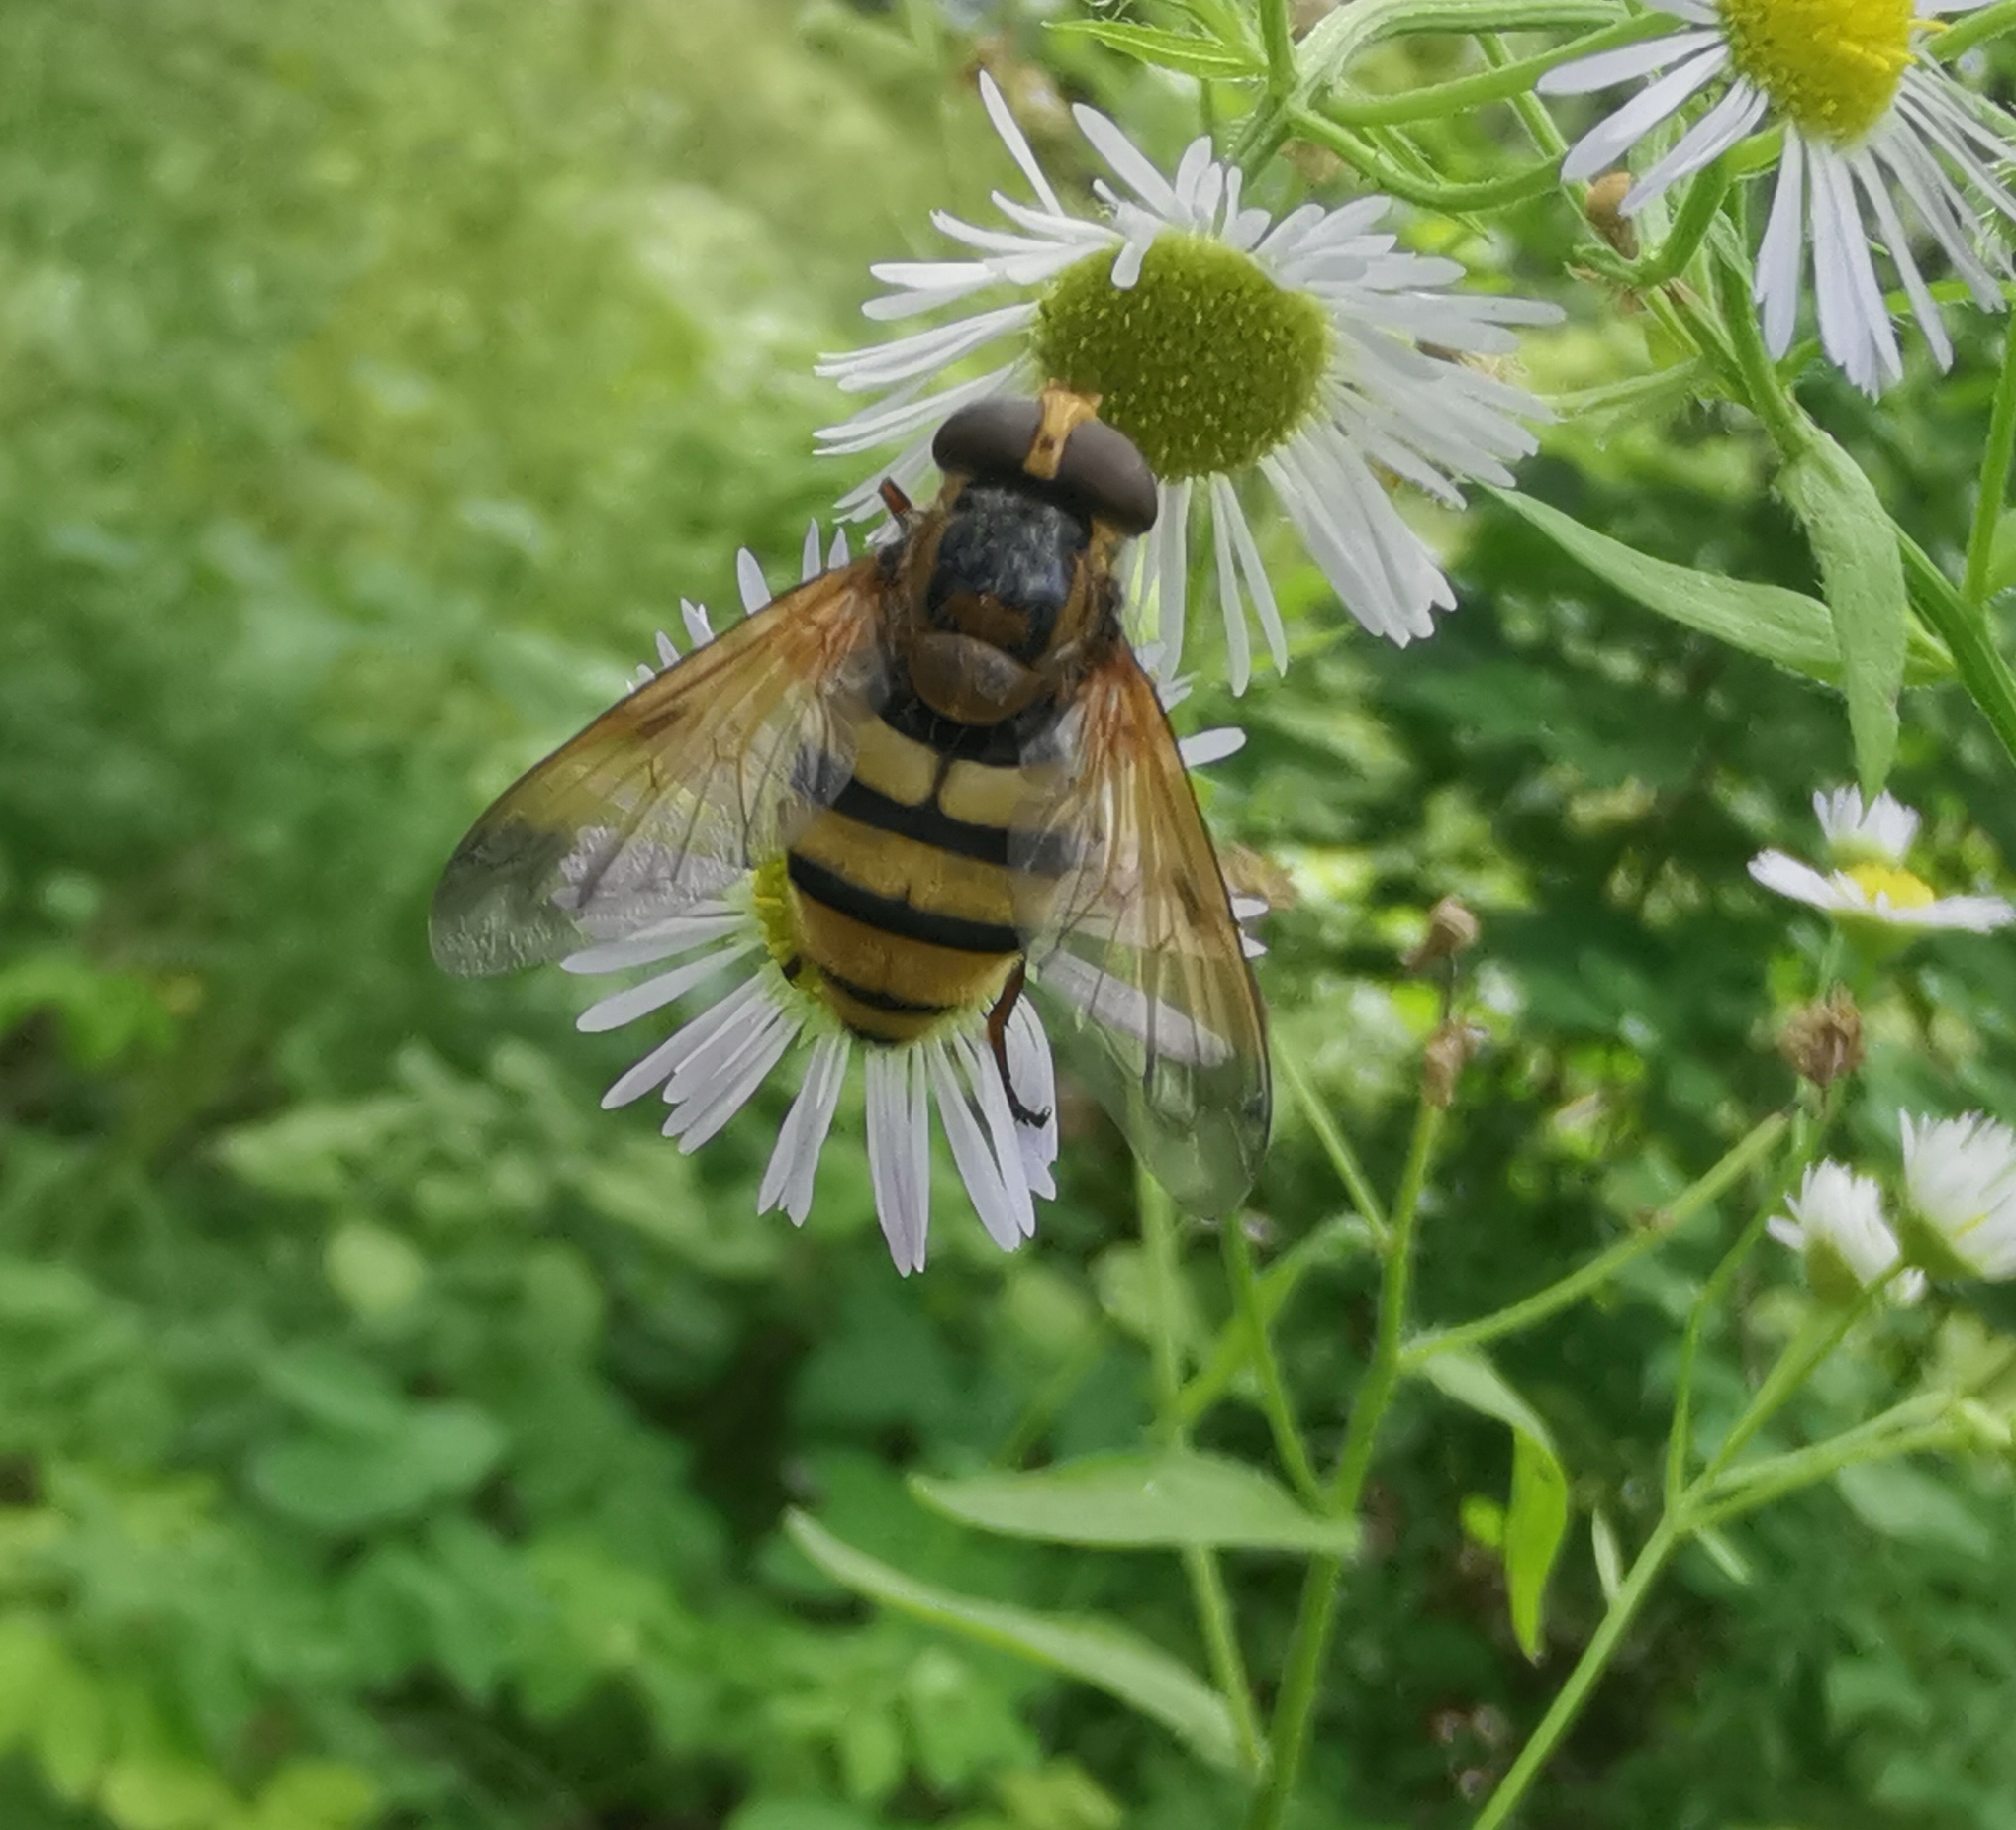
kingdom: Animalia
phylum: Arthropoda
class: Insecta
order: Diptera
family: Syrphidae
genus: Volucella
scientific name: Volucella inanis
